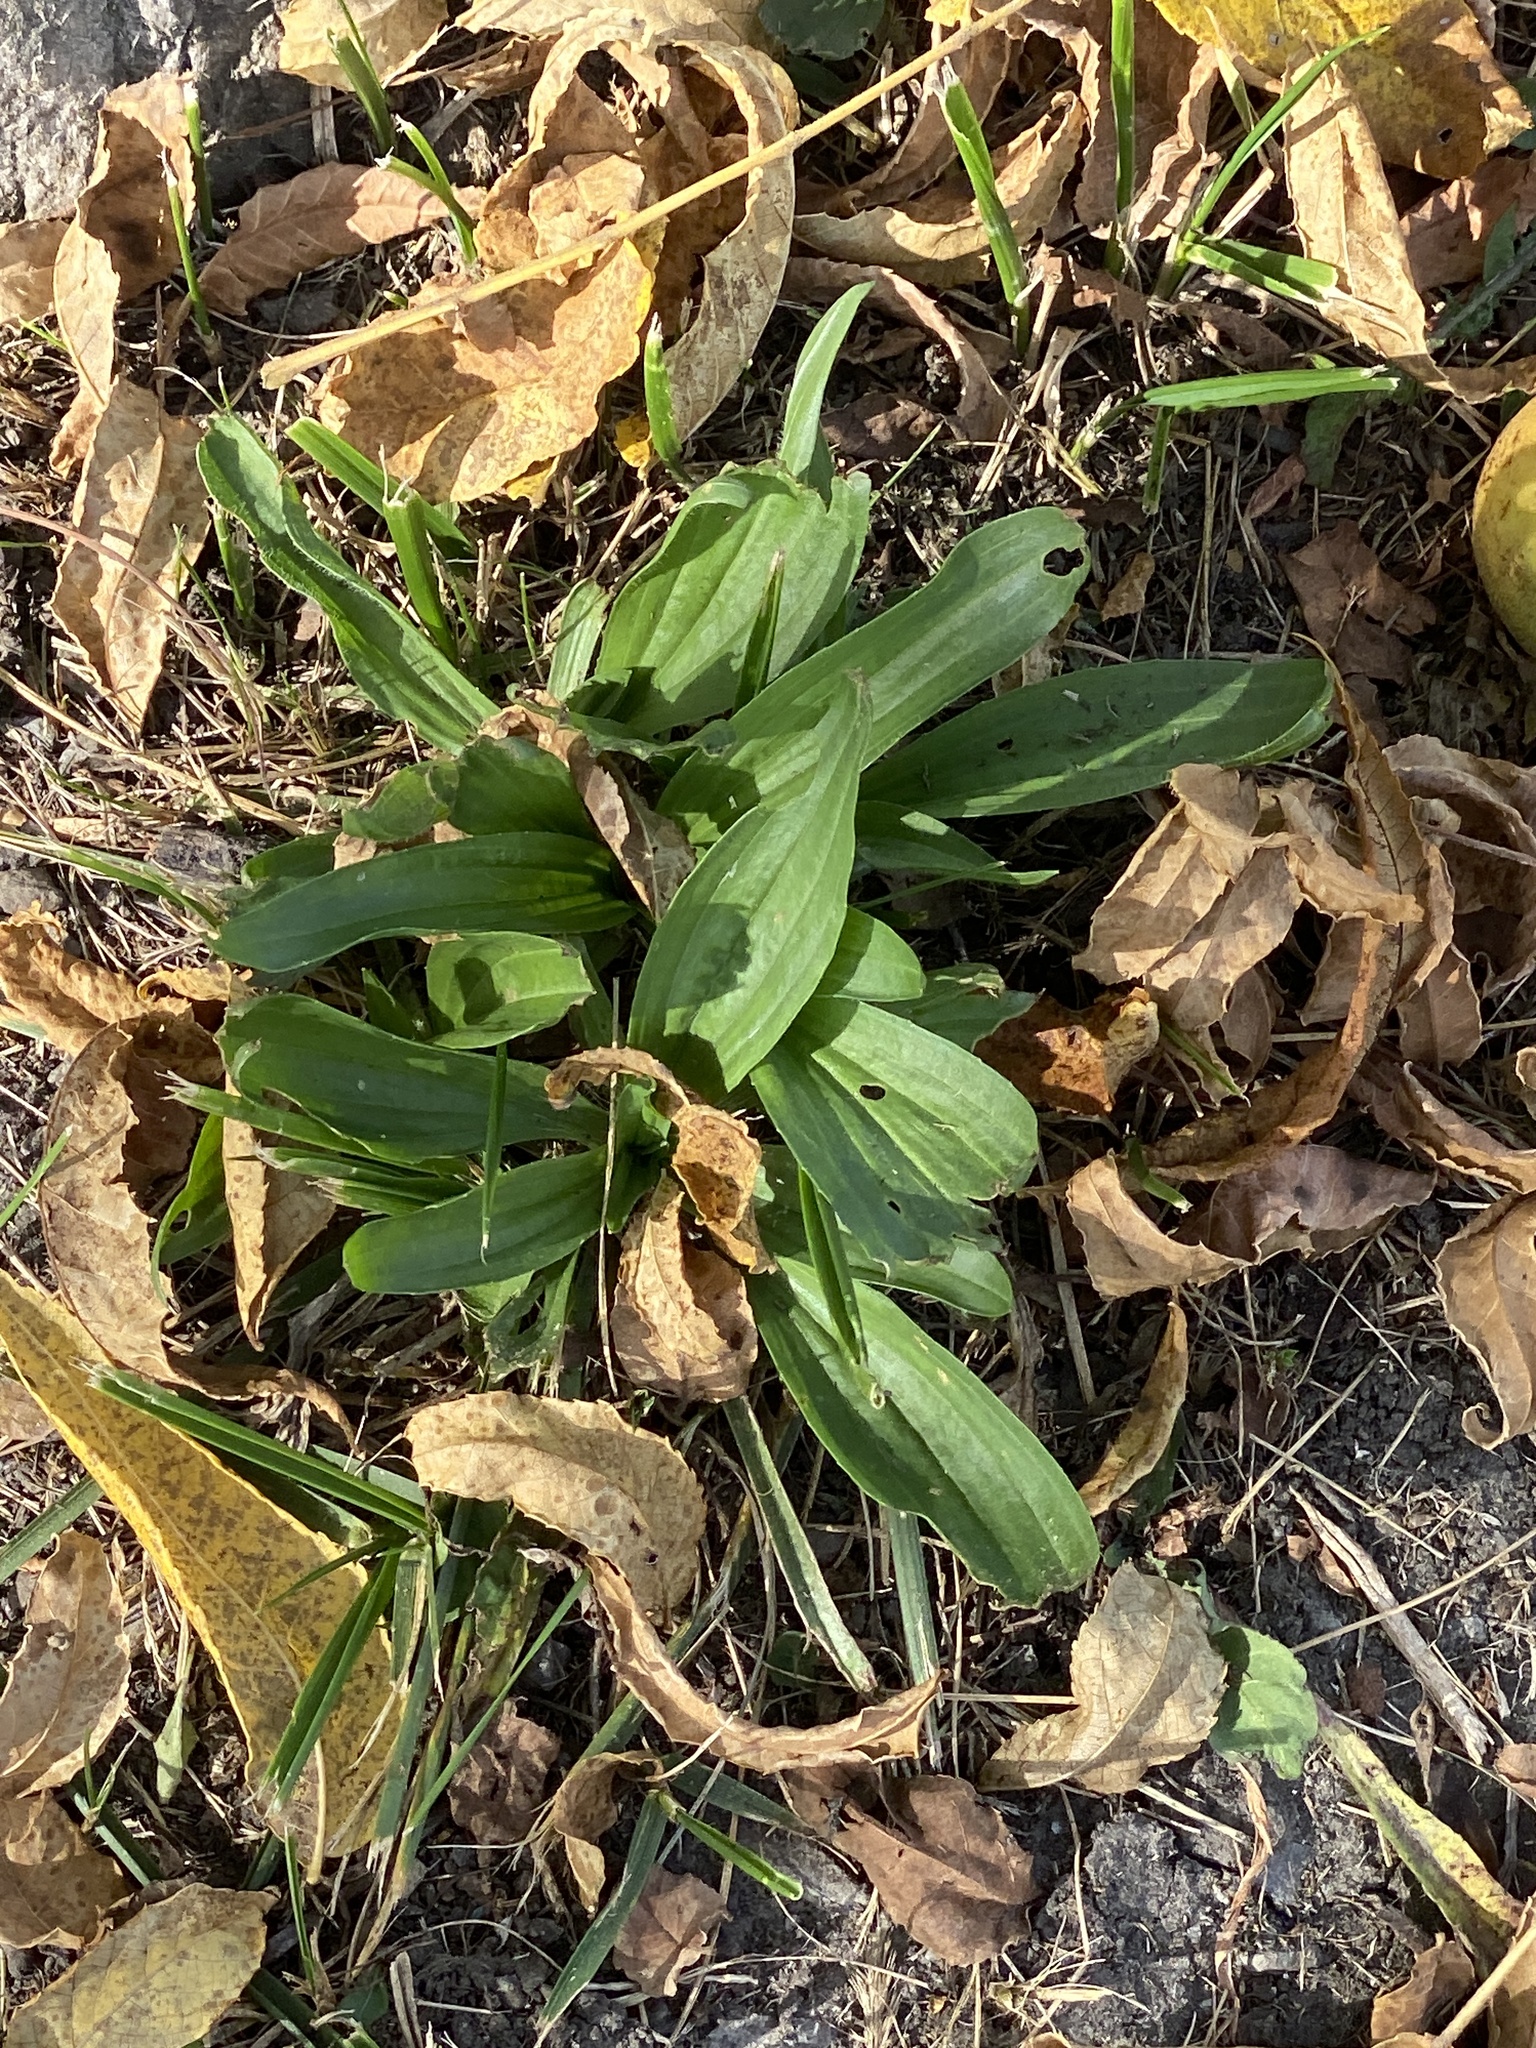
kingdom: Plantae
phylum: Tracheophyta
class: Magnoliopsida
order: Lamiales
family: Plantaginaceae
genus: Plantago
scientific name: Plantago lanceolata
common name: Ribwort plantain
